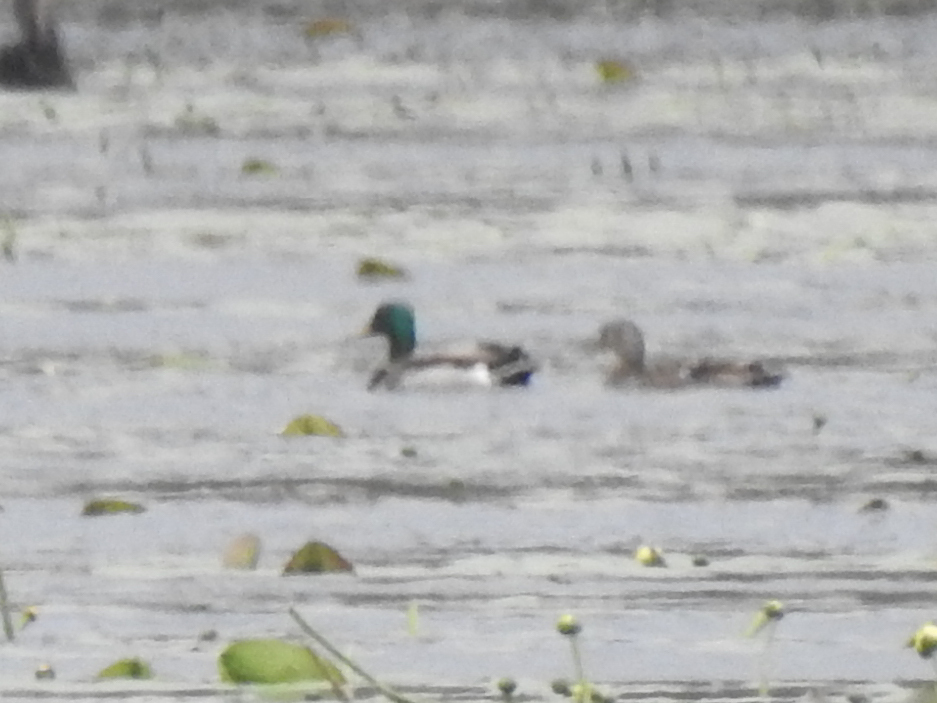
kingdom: Animalia
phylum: Chordata
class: Aves
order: Anseriformes
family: Anatidae
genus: Anas
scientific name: Anas platyrhynchos
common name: Mallard
